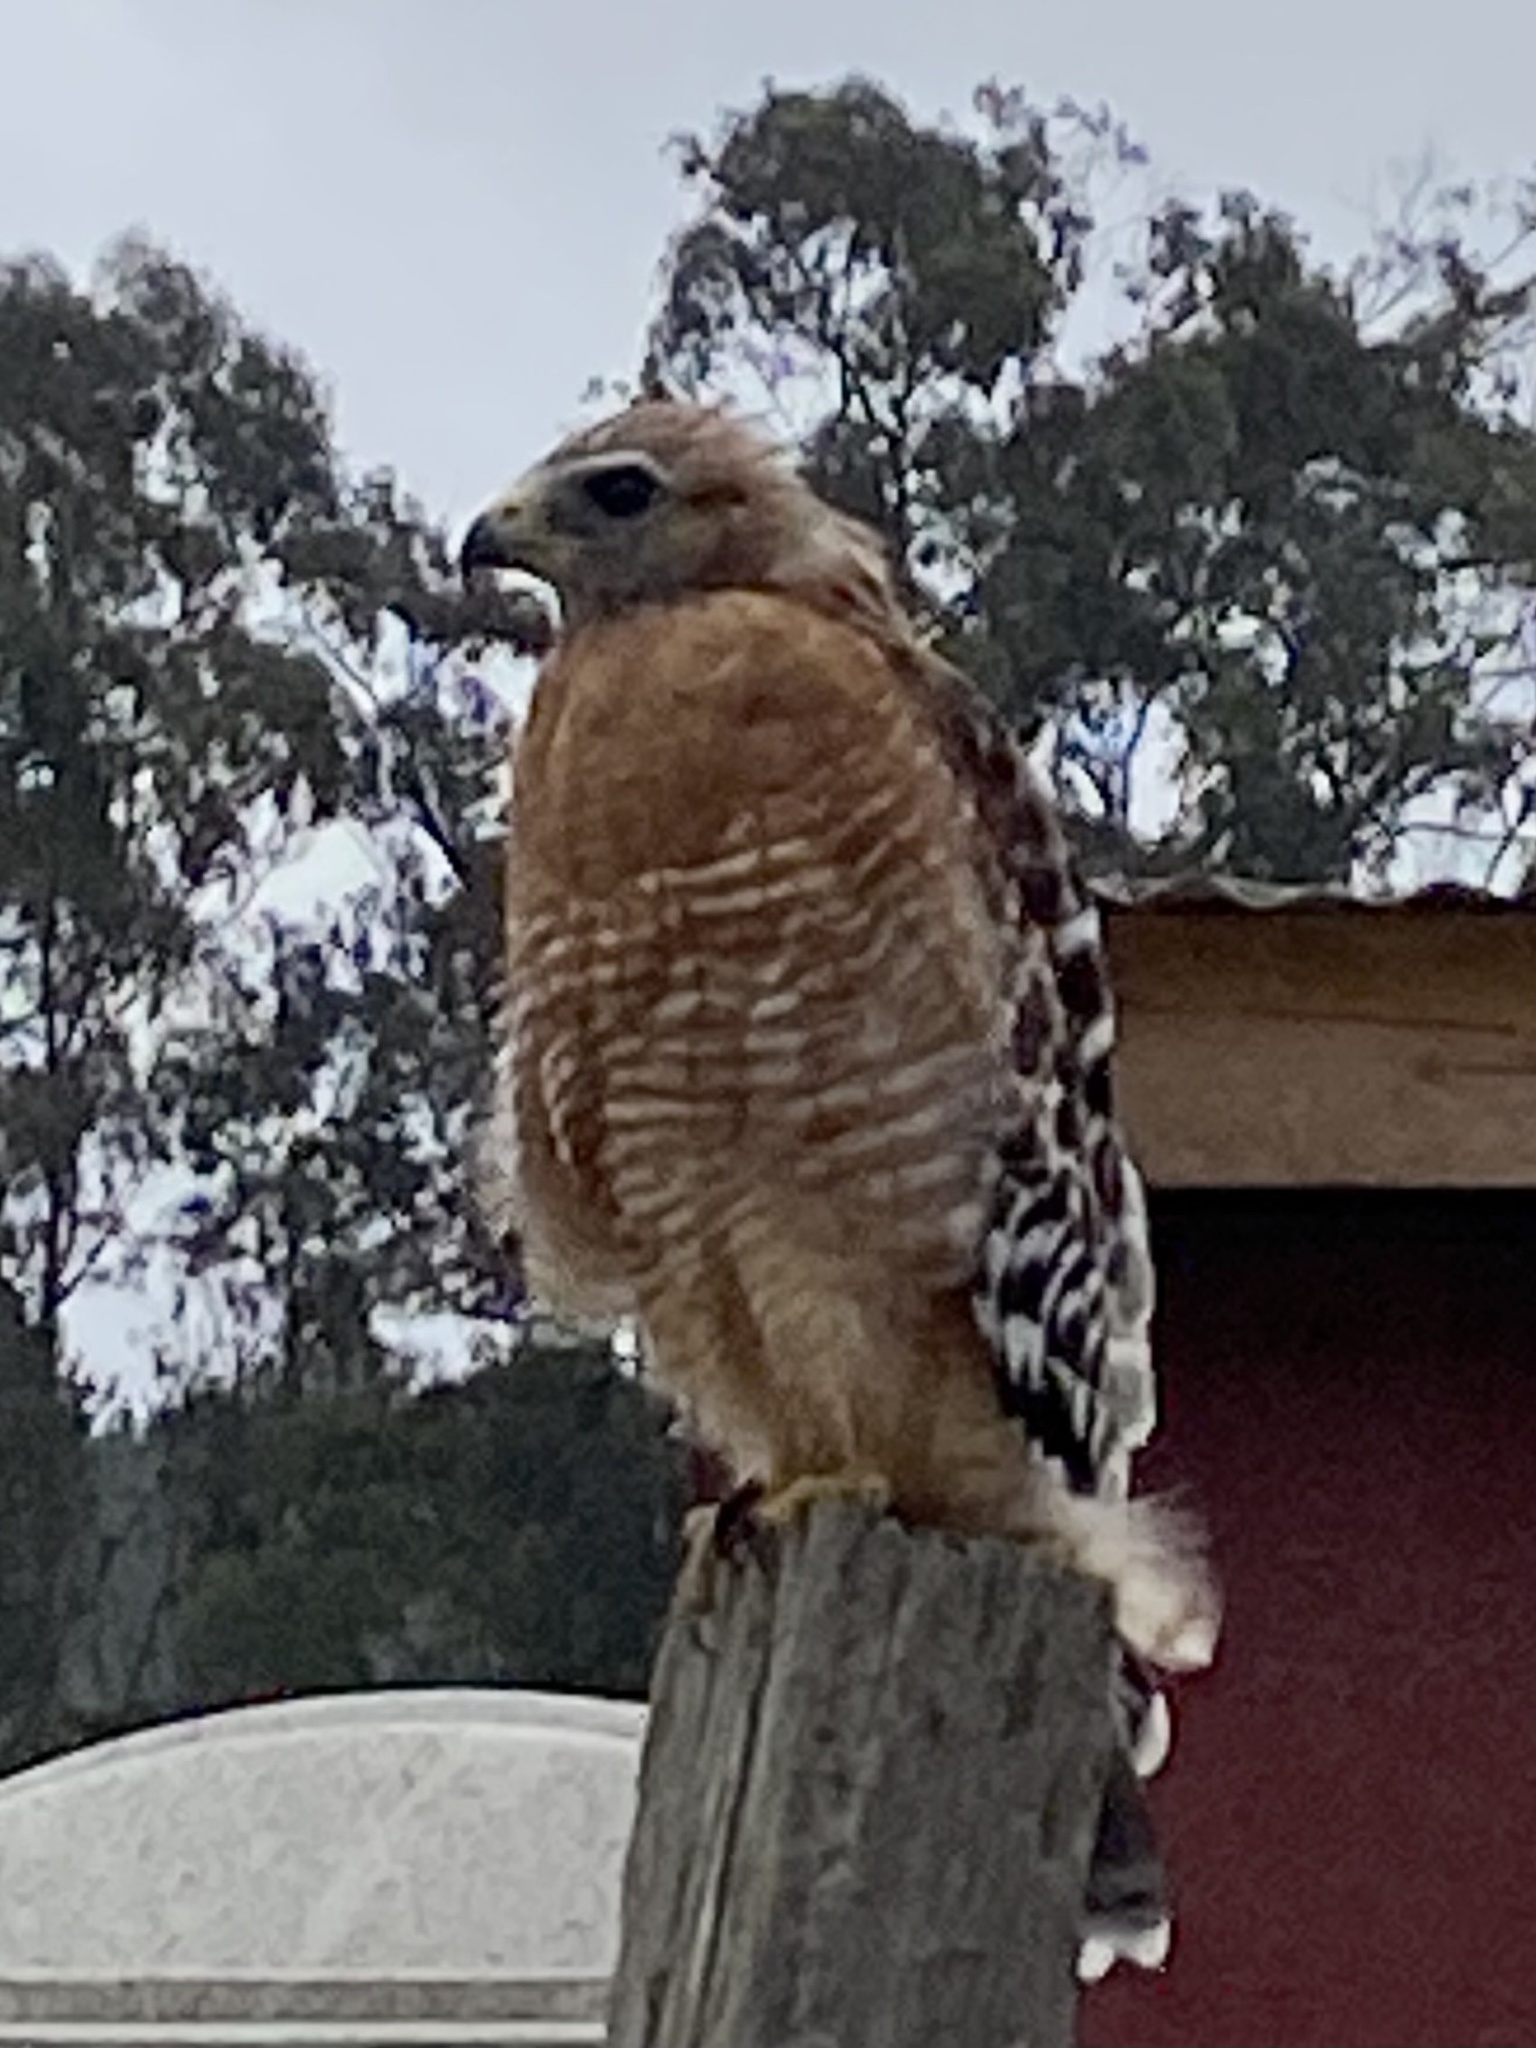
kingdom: Animalia
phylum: Chordata
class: Aves
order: Accipitriformes
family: Accipitridae
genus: Buteo
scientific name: Buteo lineatus
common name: Red-shouldered hawk
